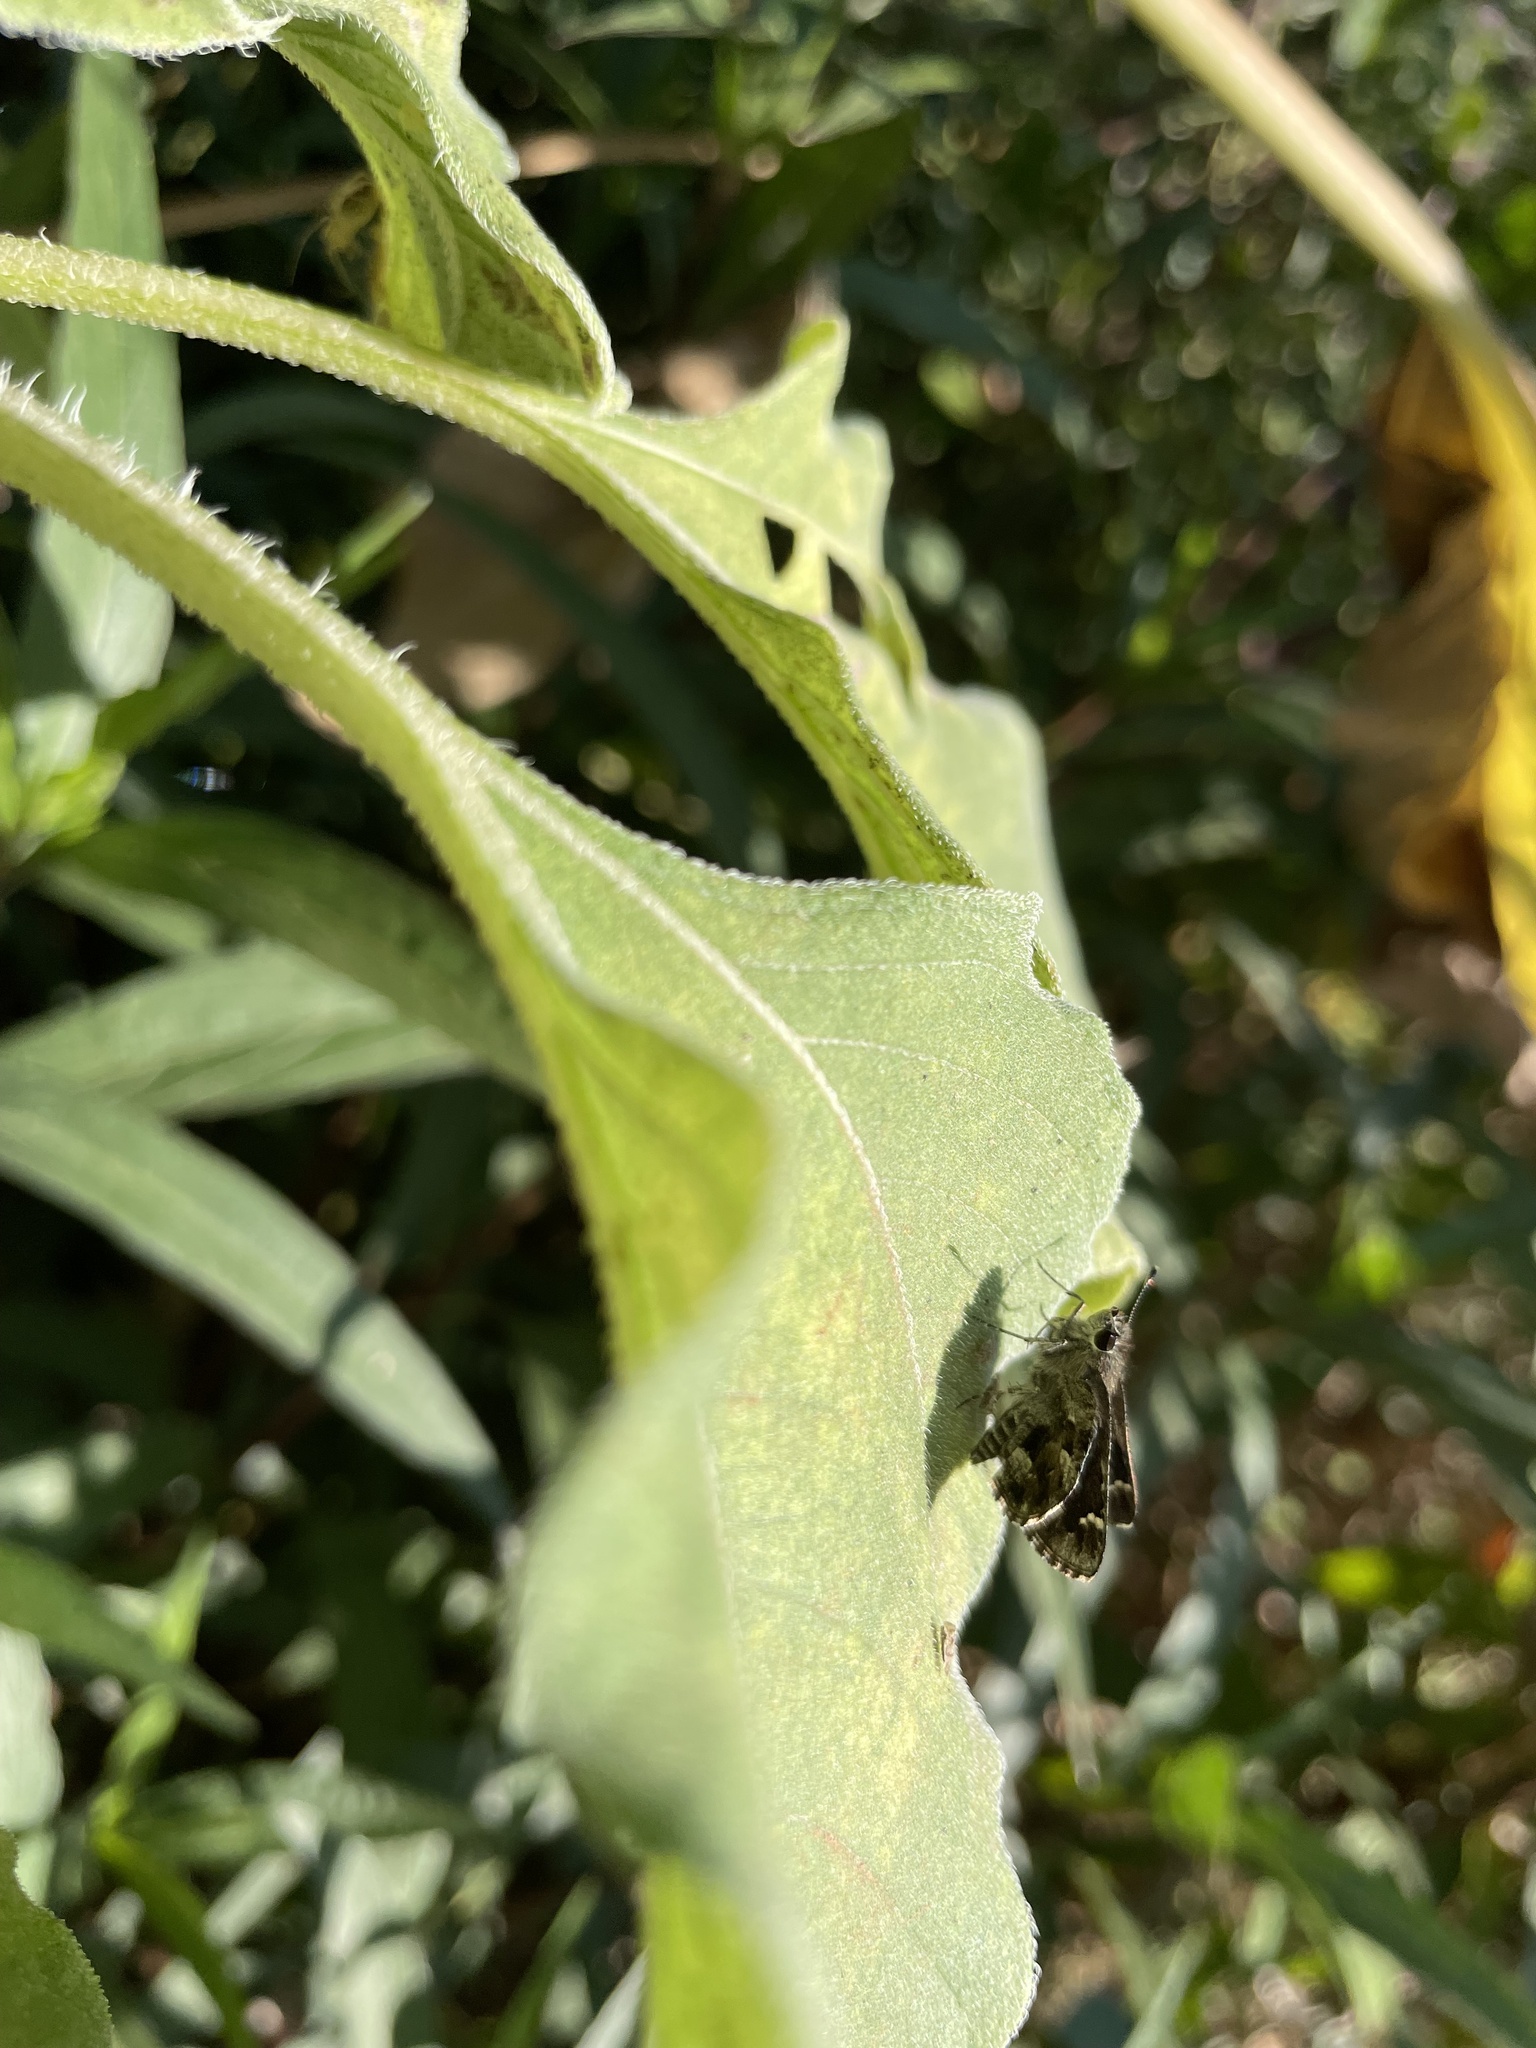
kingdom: Animalia
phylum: Arthropoda
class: Insecta
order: Lepidoptera
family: Hesperiidae
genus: Mastor
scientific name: Mastor nysa
